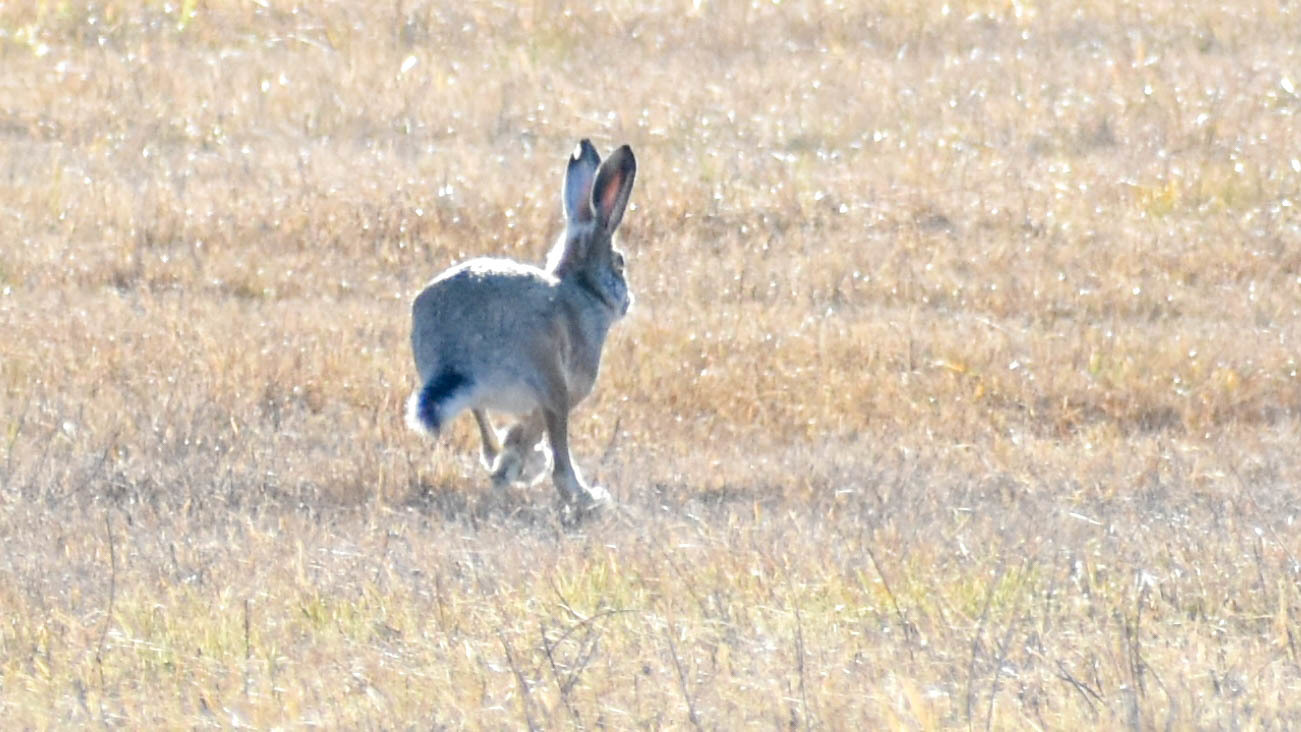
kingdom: Animalia
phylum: Chordata
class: Mammalia
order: Lagomorpha
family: Leporidae
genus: Lepus
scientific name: Lepus europaeus
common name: European hare
